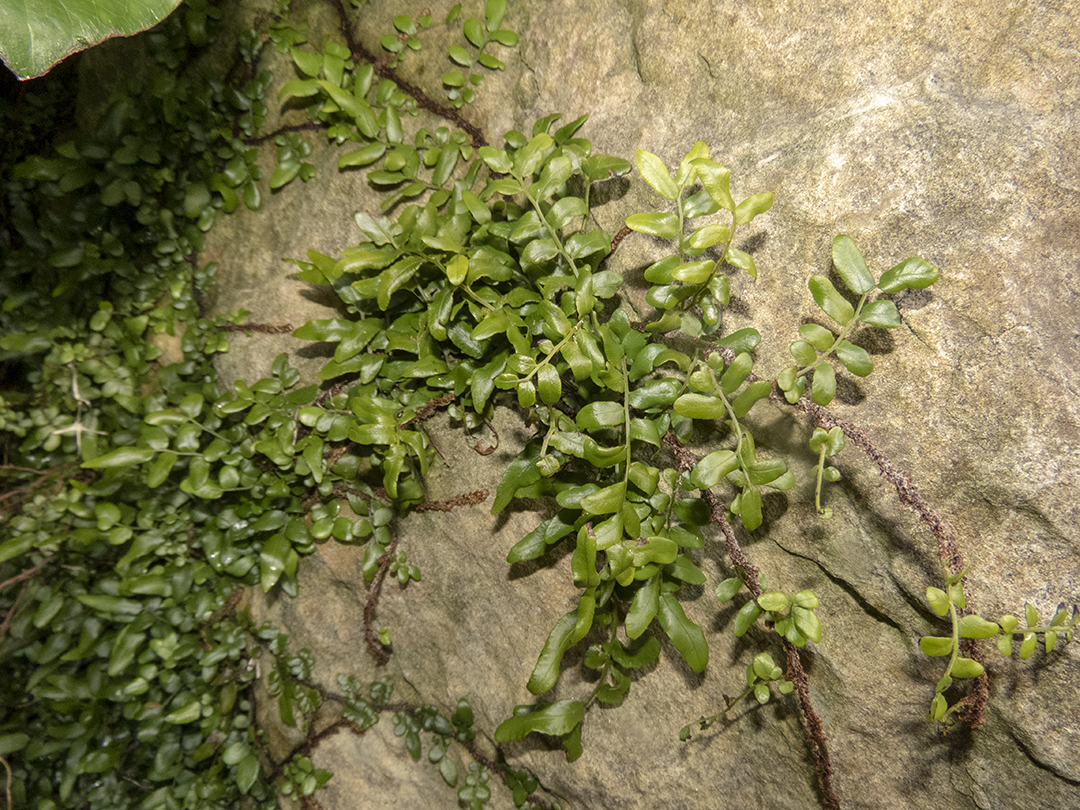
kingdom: Plantae
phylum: Tracheophyta
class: Polypodiopsida
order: Polypodiales
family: Tectariaceae
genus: Arthropteris
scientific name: Arthropteris tenella
